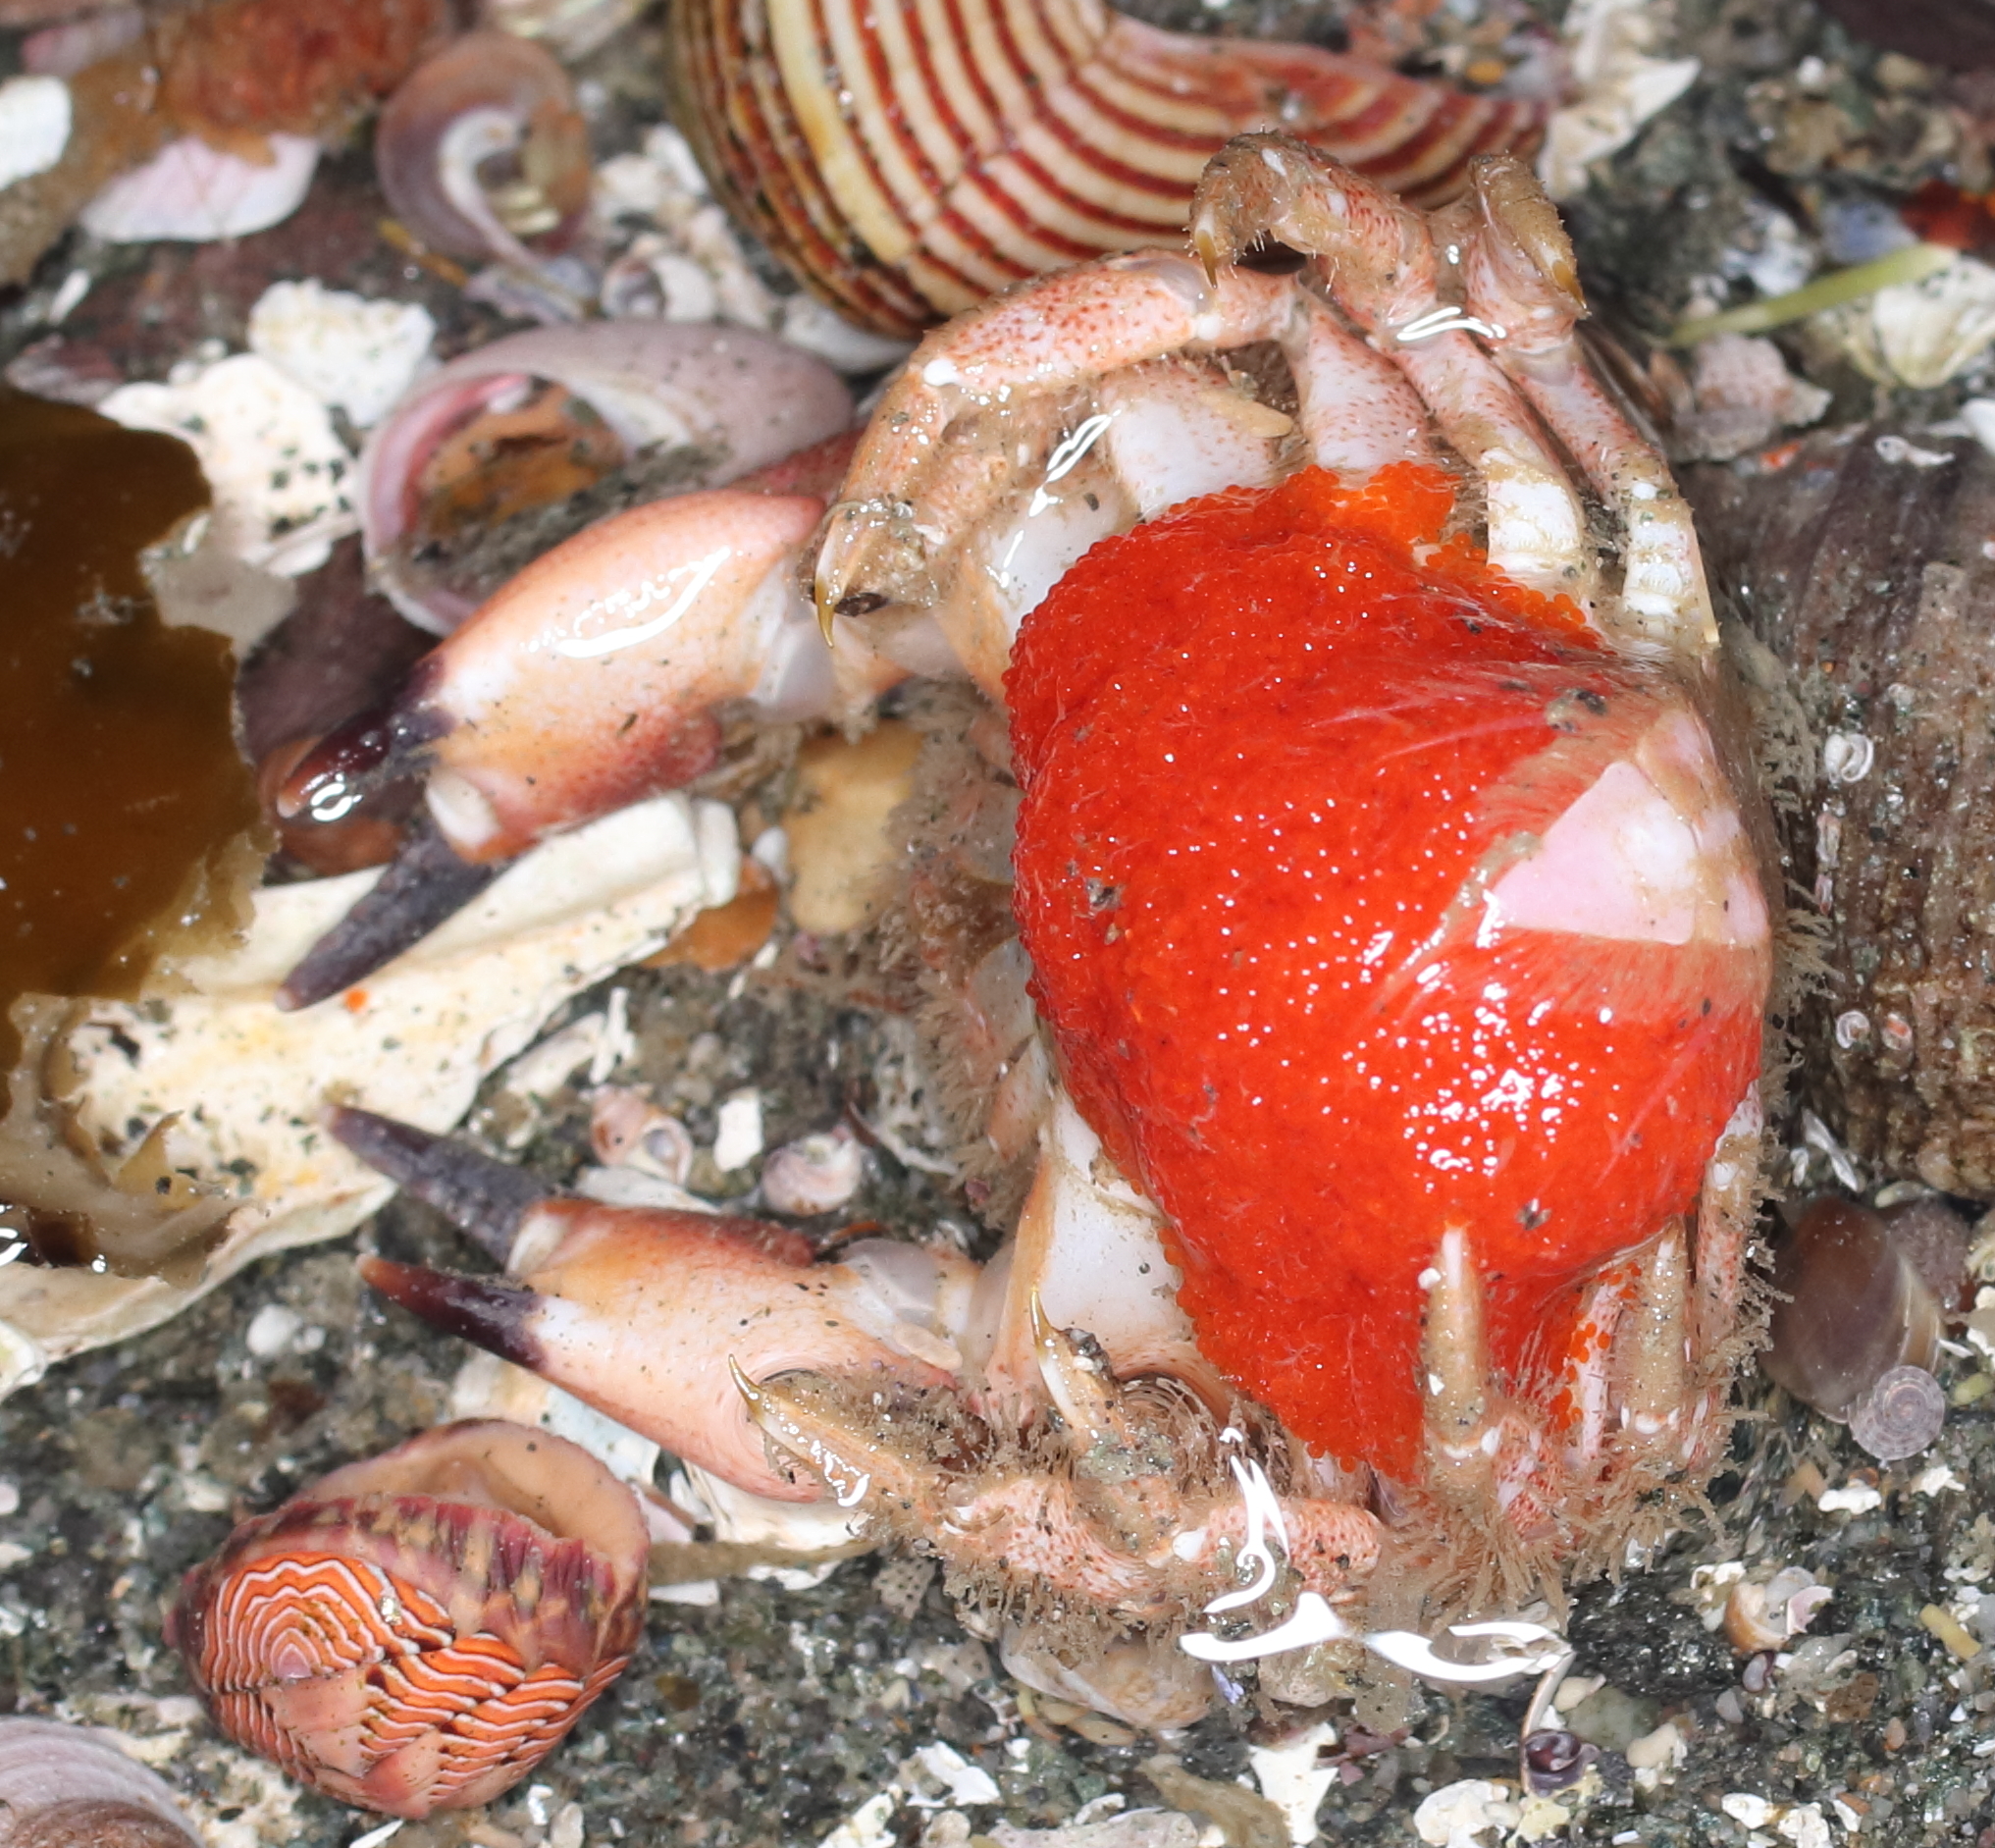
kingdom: Animalia
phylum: Arthropoda
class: Malacostraca
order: Decapoda
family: Cancridae
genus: Glebocarcinus
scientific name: Glebocarcinus oregonensis
